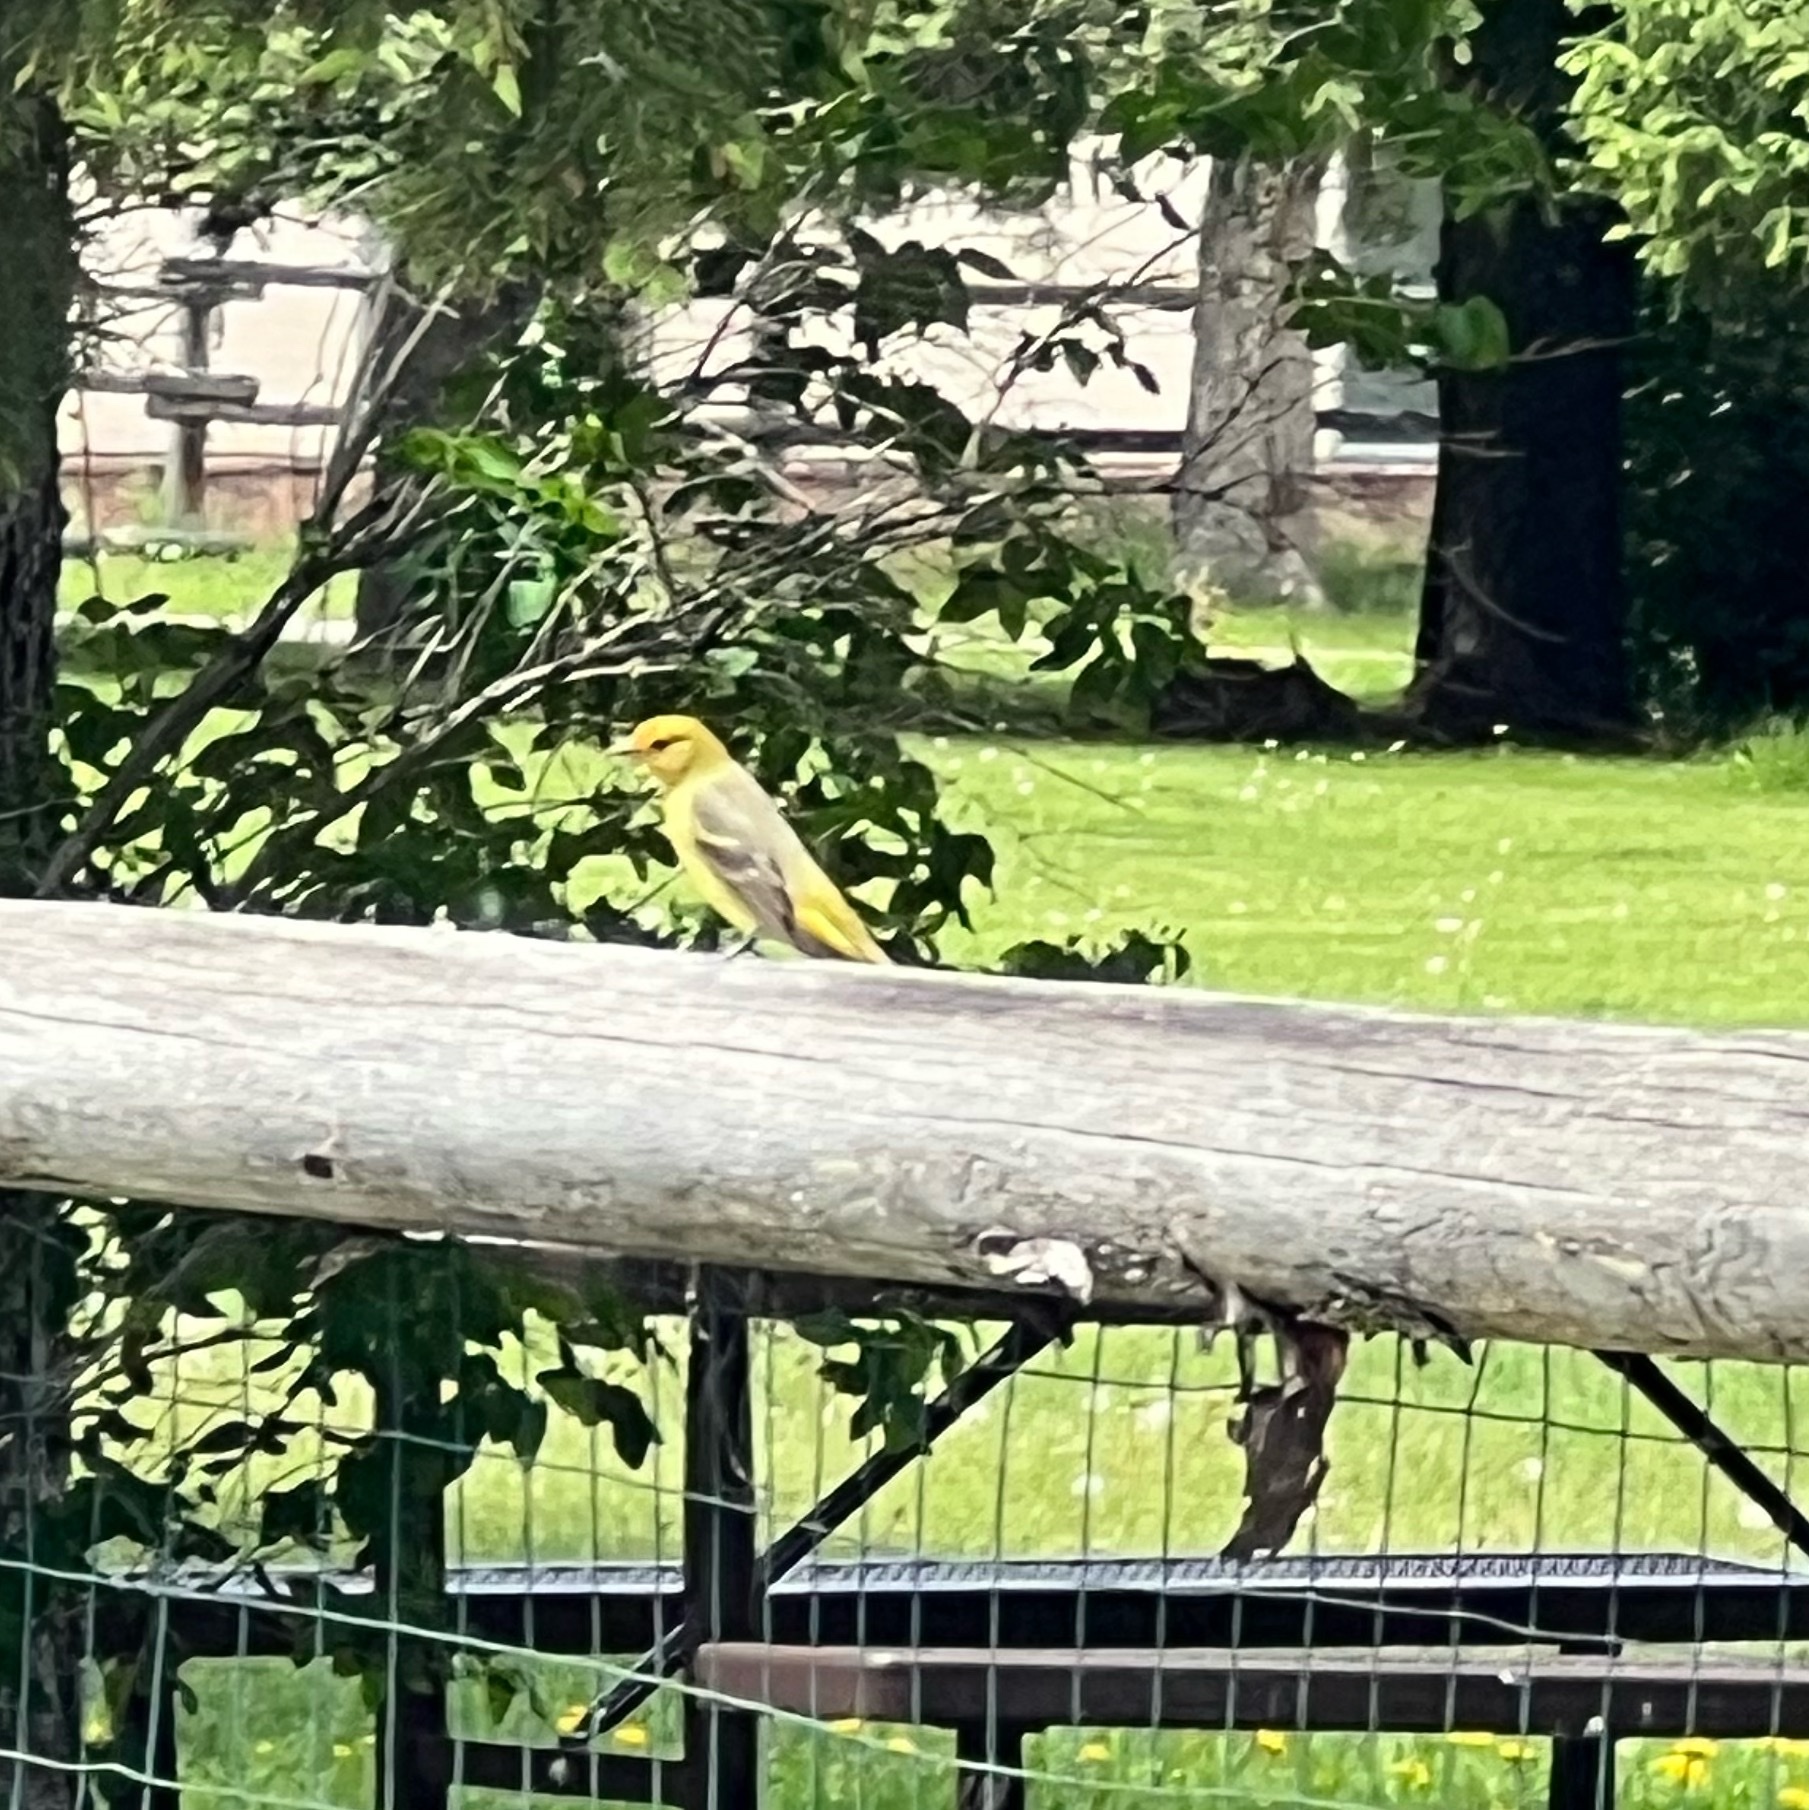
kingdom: Animalia
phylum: Chordata
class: Aves
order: Passeriformes
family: Cardinalidae
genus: Piranga
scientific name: Piranga ludoviciana
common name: Western tanager
